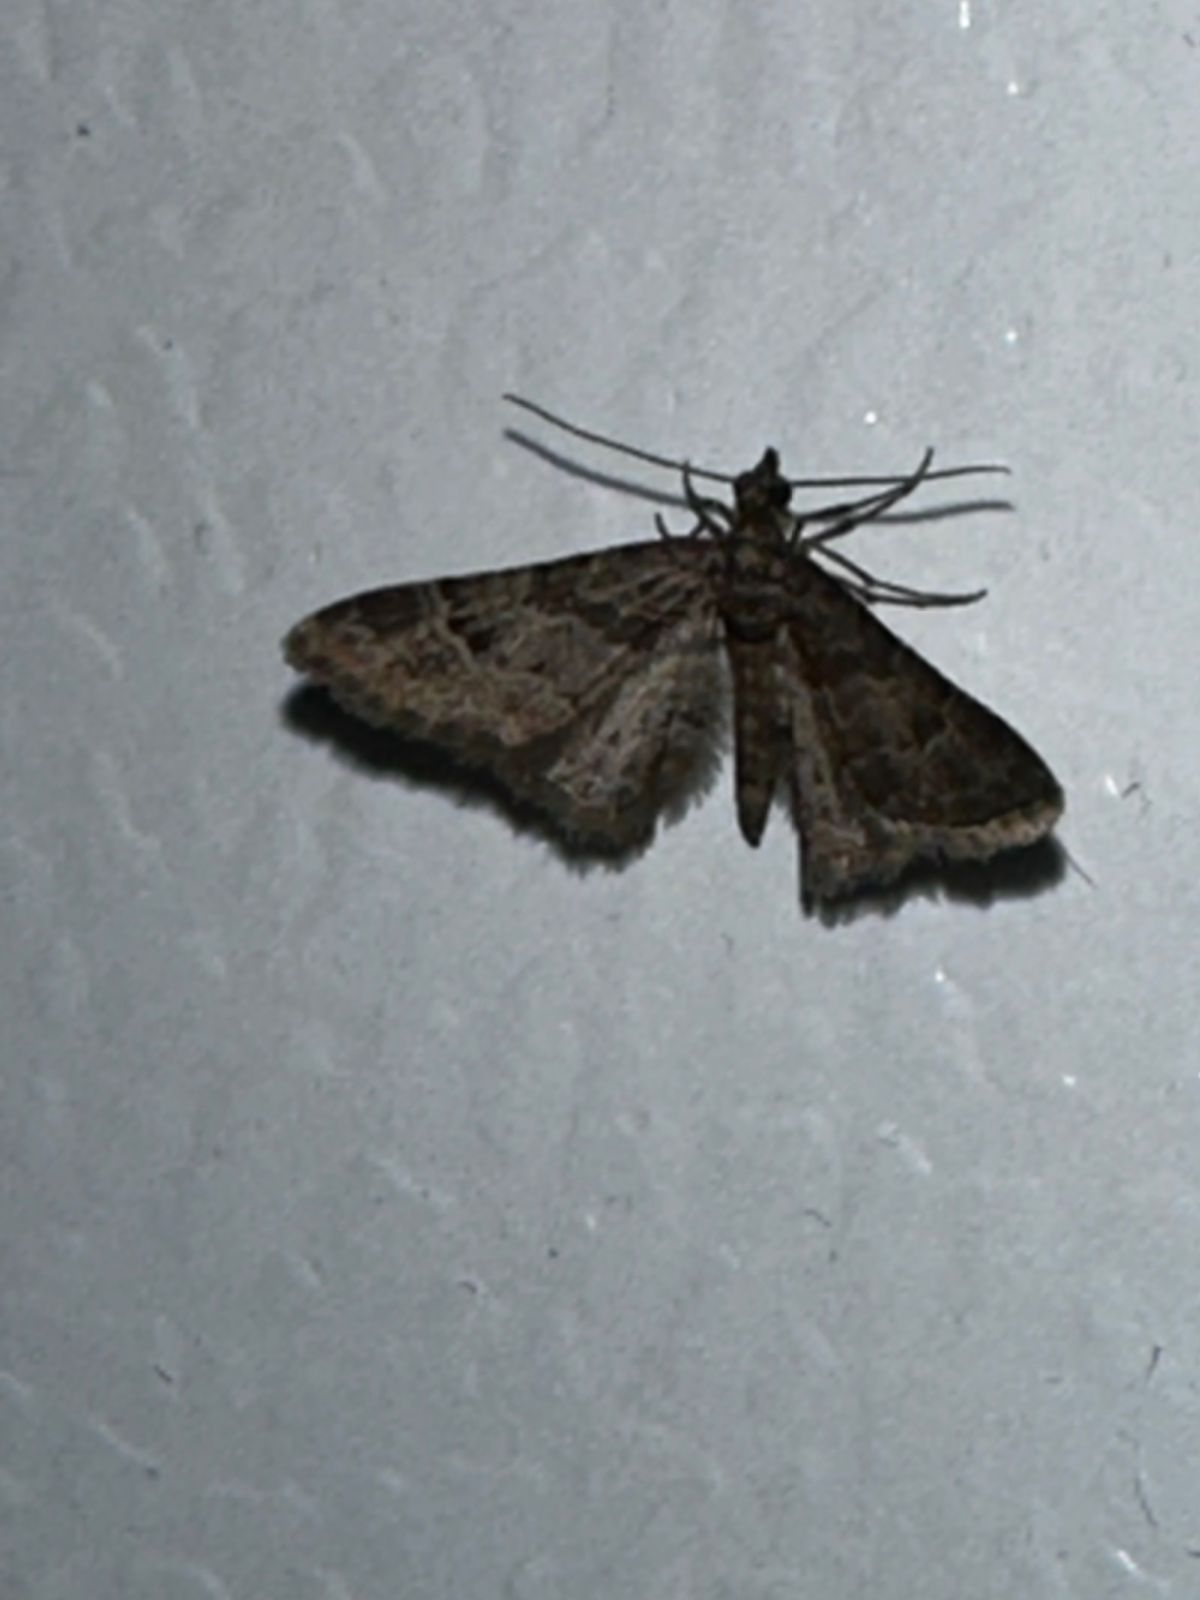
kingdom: Animalia
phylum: Arthropoda
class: Insecta
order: Lepidoptera
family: Geometridae
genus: Gymnoscelis
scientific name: Gymnoscelis rufifasciata
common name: Double-striped pug
